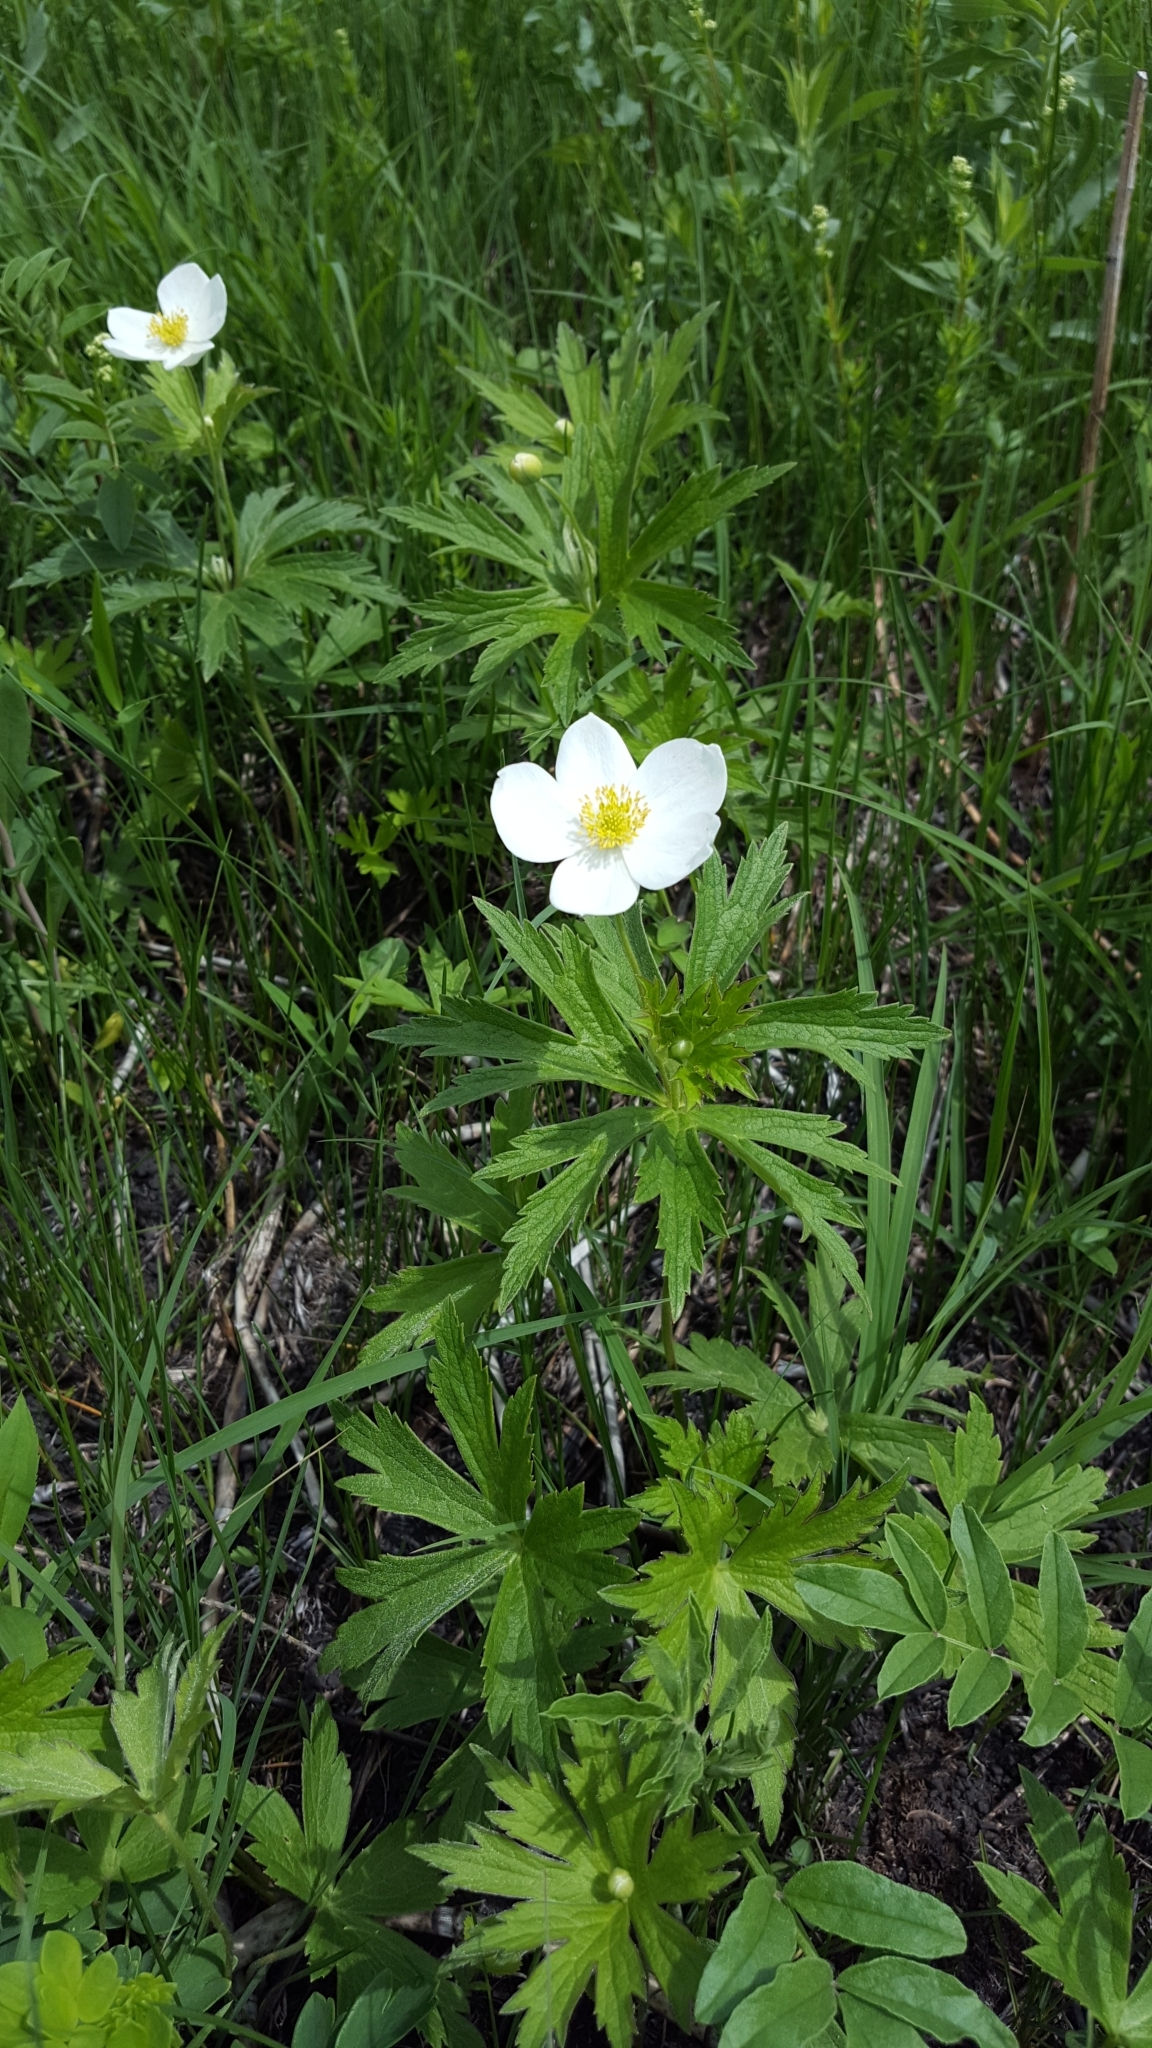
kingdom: Plantae
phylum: Tracheophyta
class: Magnoliopsida
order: Ranunculales
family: Ranunculaceae
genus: Anemonastrum
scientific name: Anemonastrum canadense
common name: Canada anemone
